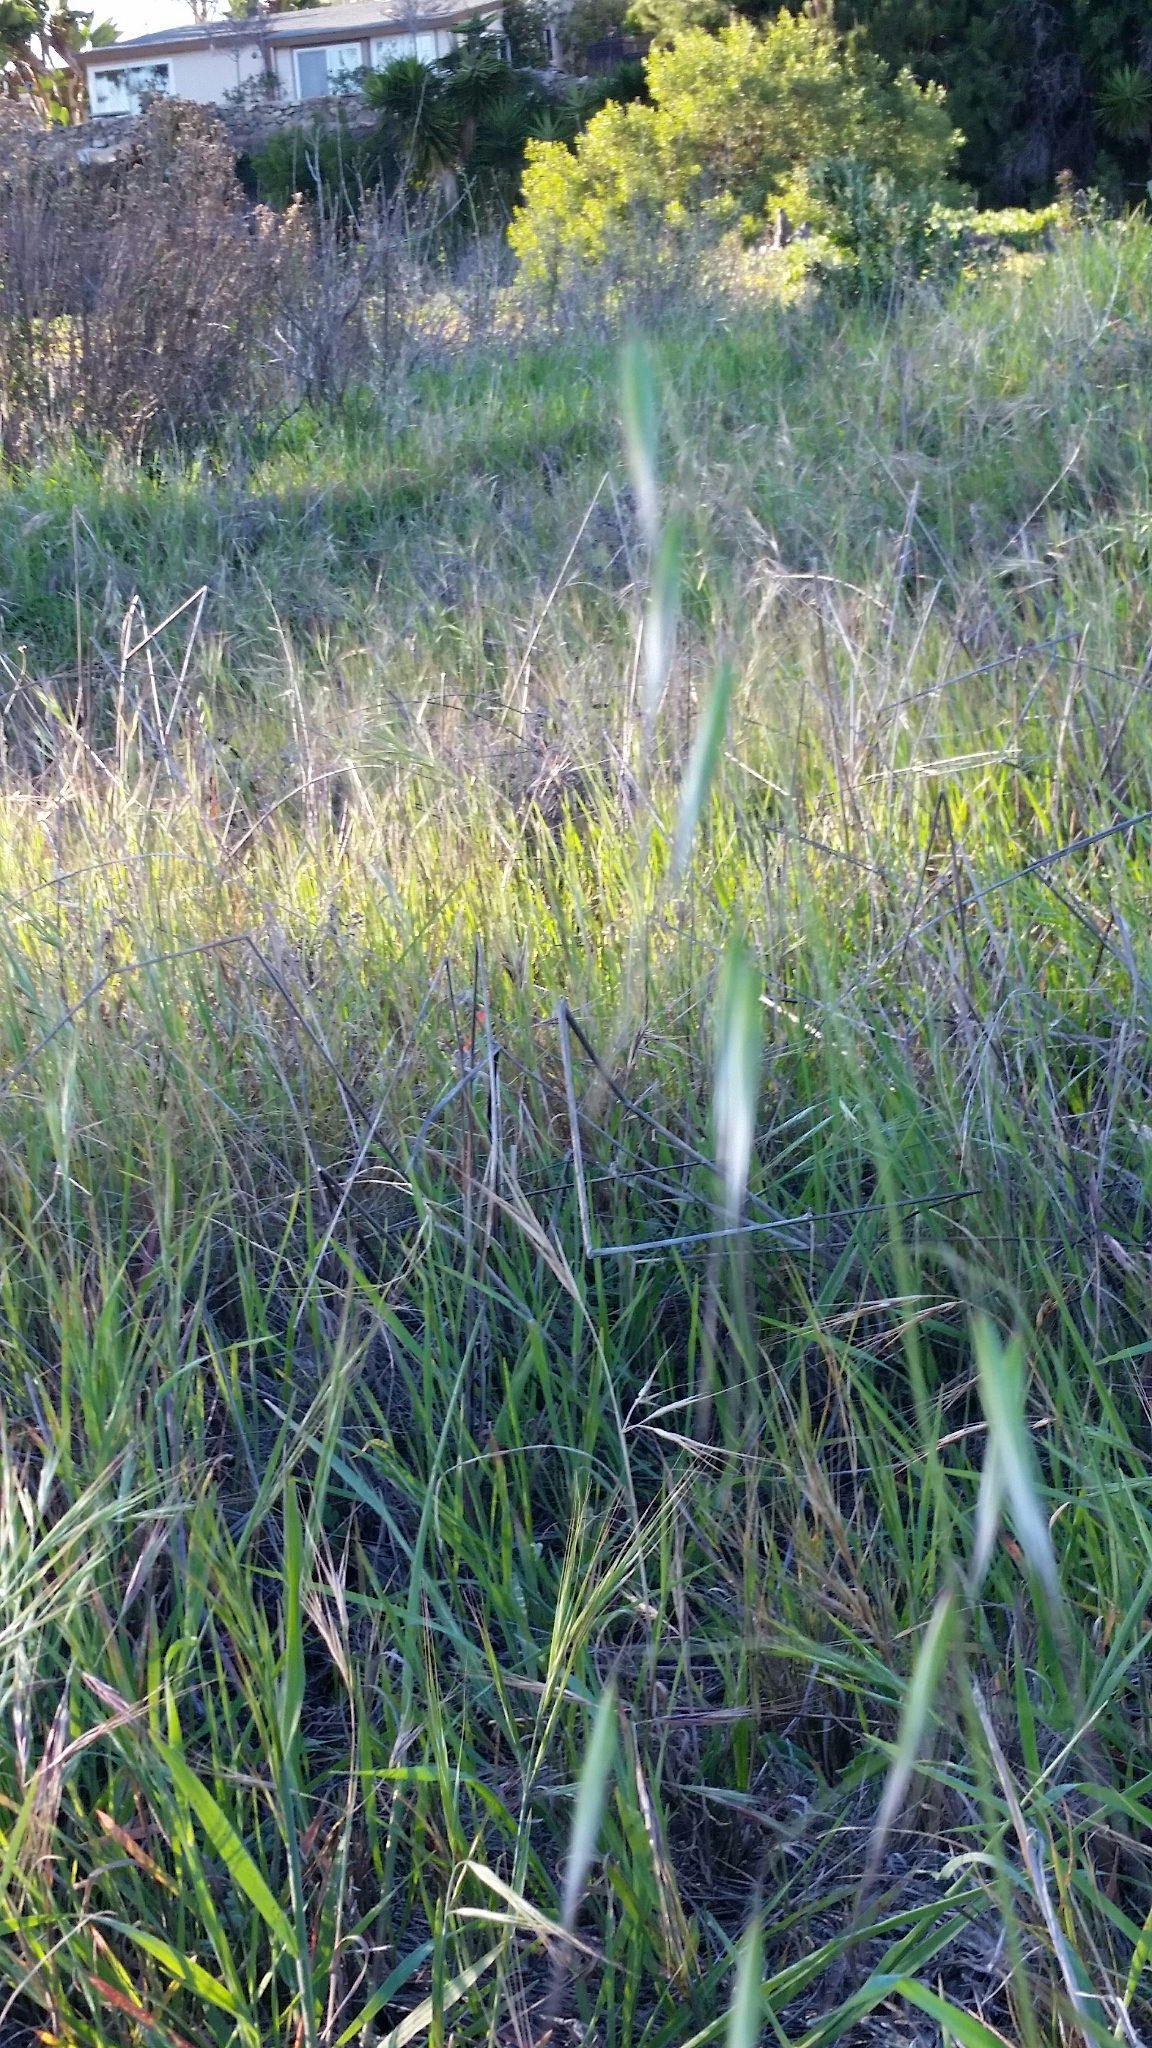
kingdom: Plantae
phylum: Tracheophyta
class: Liliopsida
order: Poales
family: Poaceae
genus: Avena
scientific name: Avena barbata
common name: Slender oat
